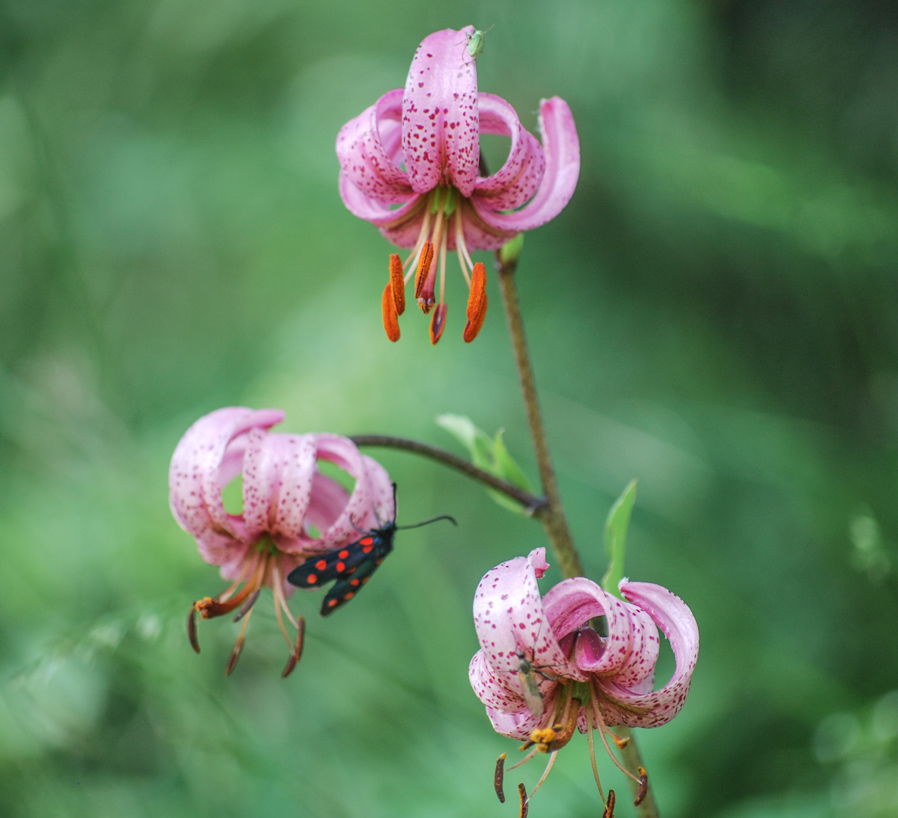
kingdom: Plantae
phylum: Tracheophyta
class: Liliopsida
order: Liliales
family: Liliaceae
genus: Lilium
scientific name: Lilium martagon
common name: Martagon lily
